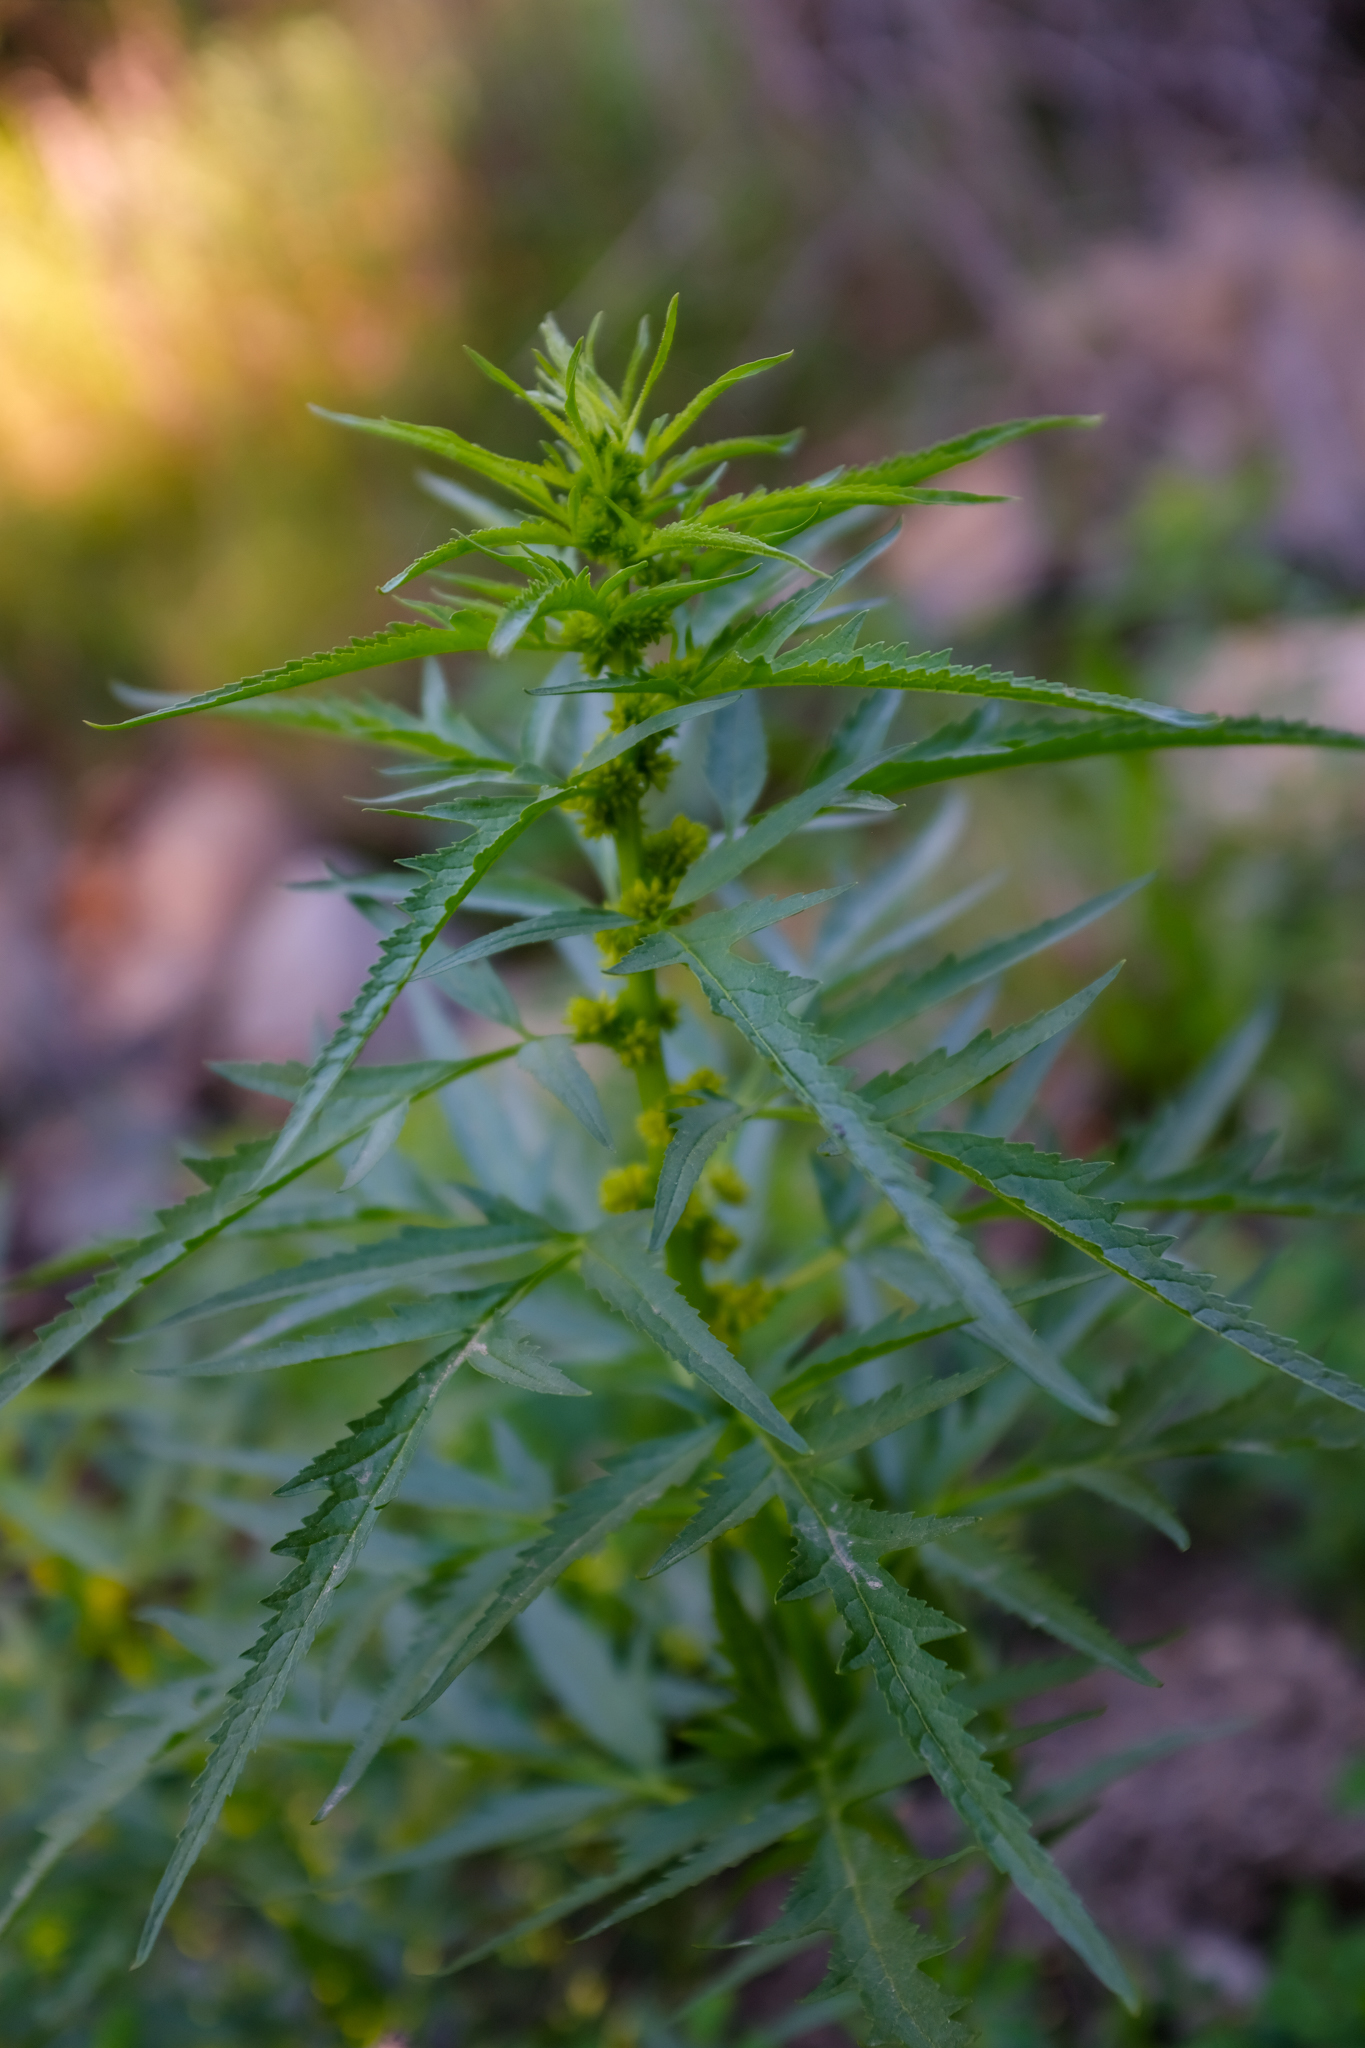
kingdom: Plantae
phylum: Tracheophyta
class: Magnoliopsida
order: Cucurbitales
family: Datiscaceae
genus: Datisca
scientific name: Datisca glomerata
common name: Durango-root
